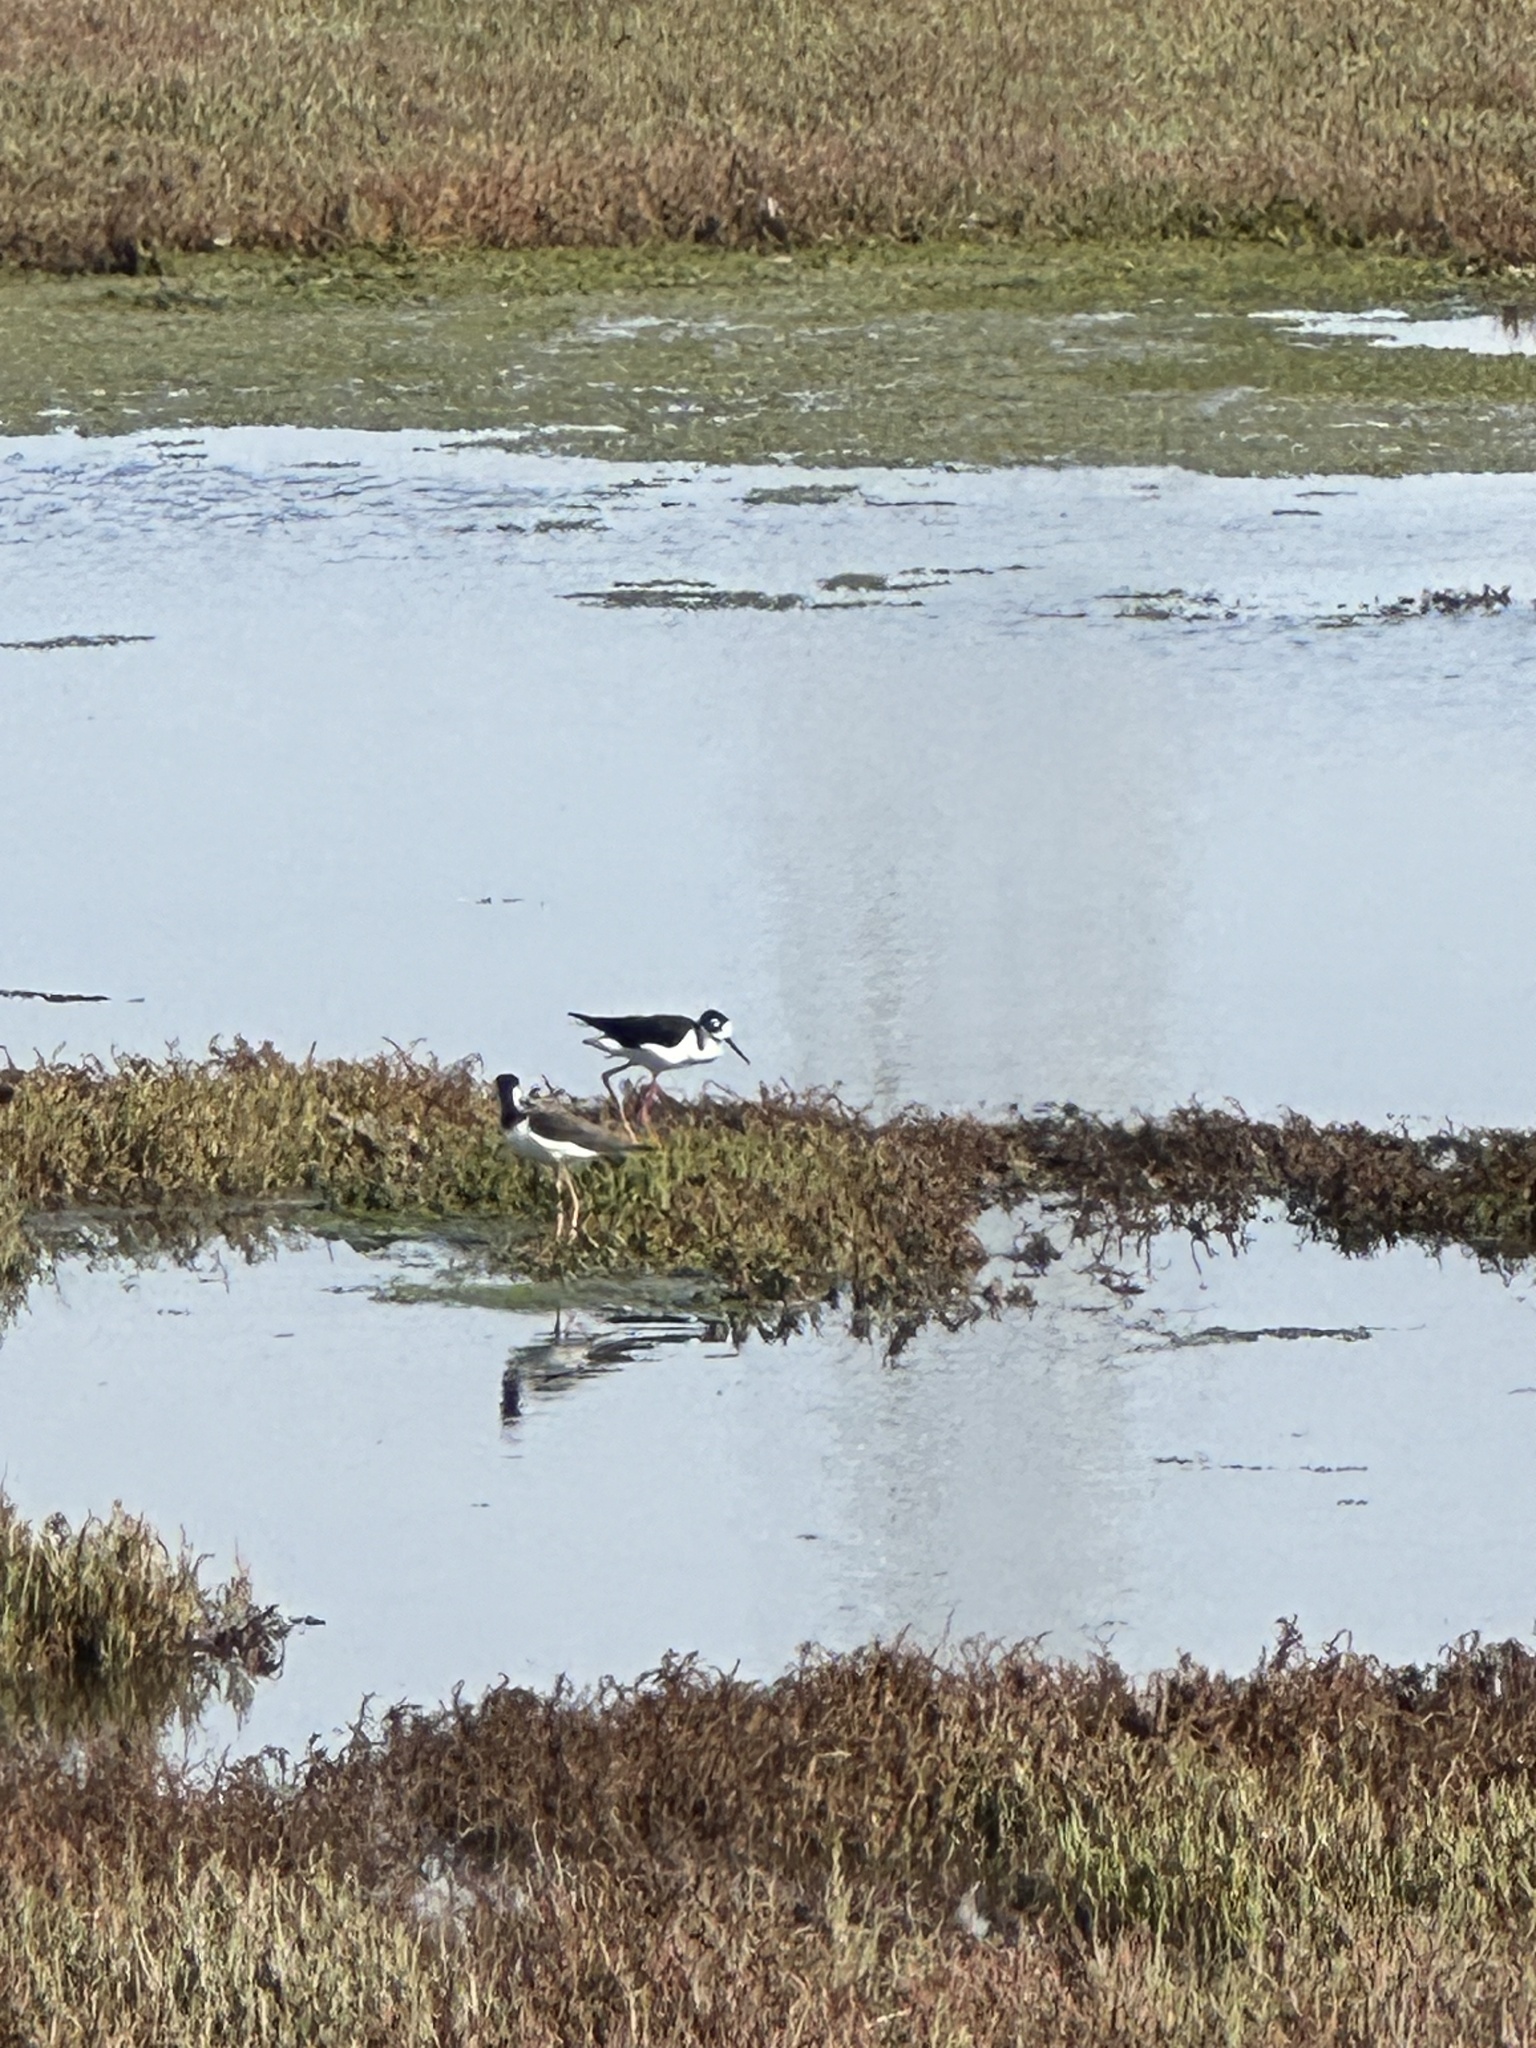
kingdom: Animalia
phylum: Chordata
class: Aves
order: Charadriiformes
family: Recurvirostridae
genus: Himantopus
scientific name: Himantopus mexicanus
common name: Black-necked stilt
